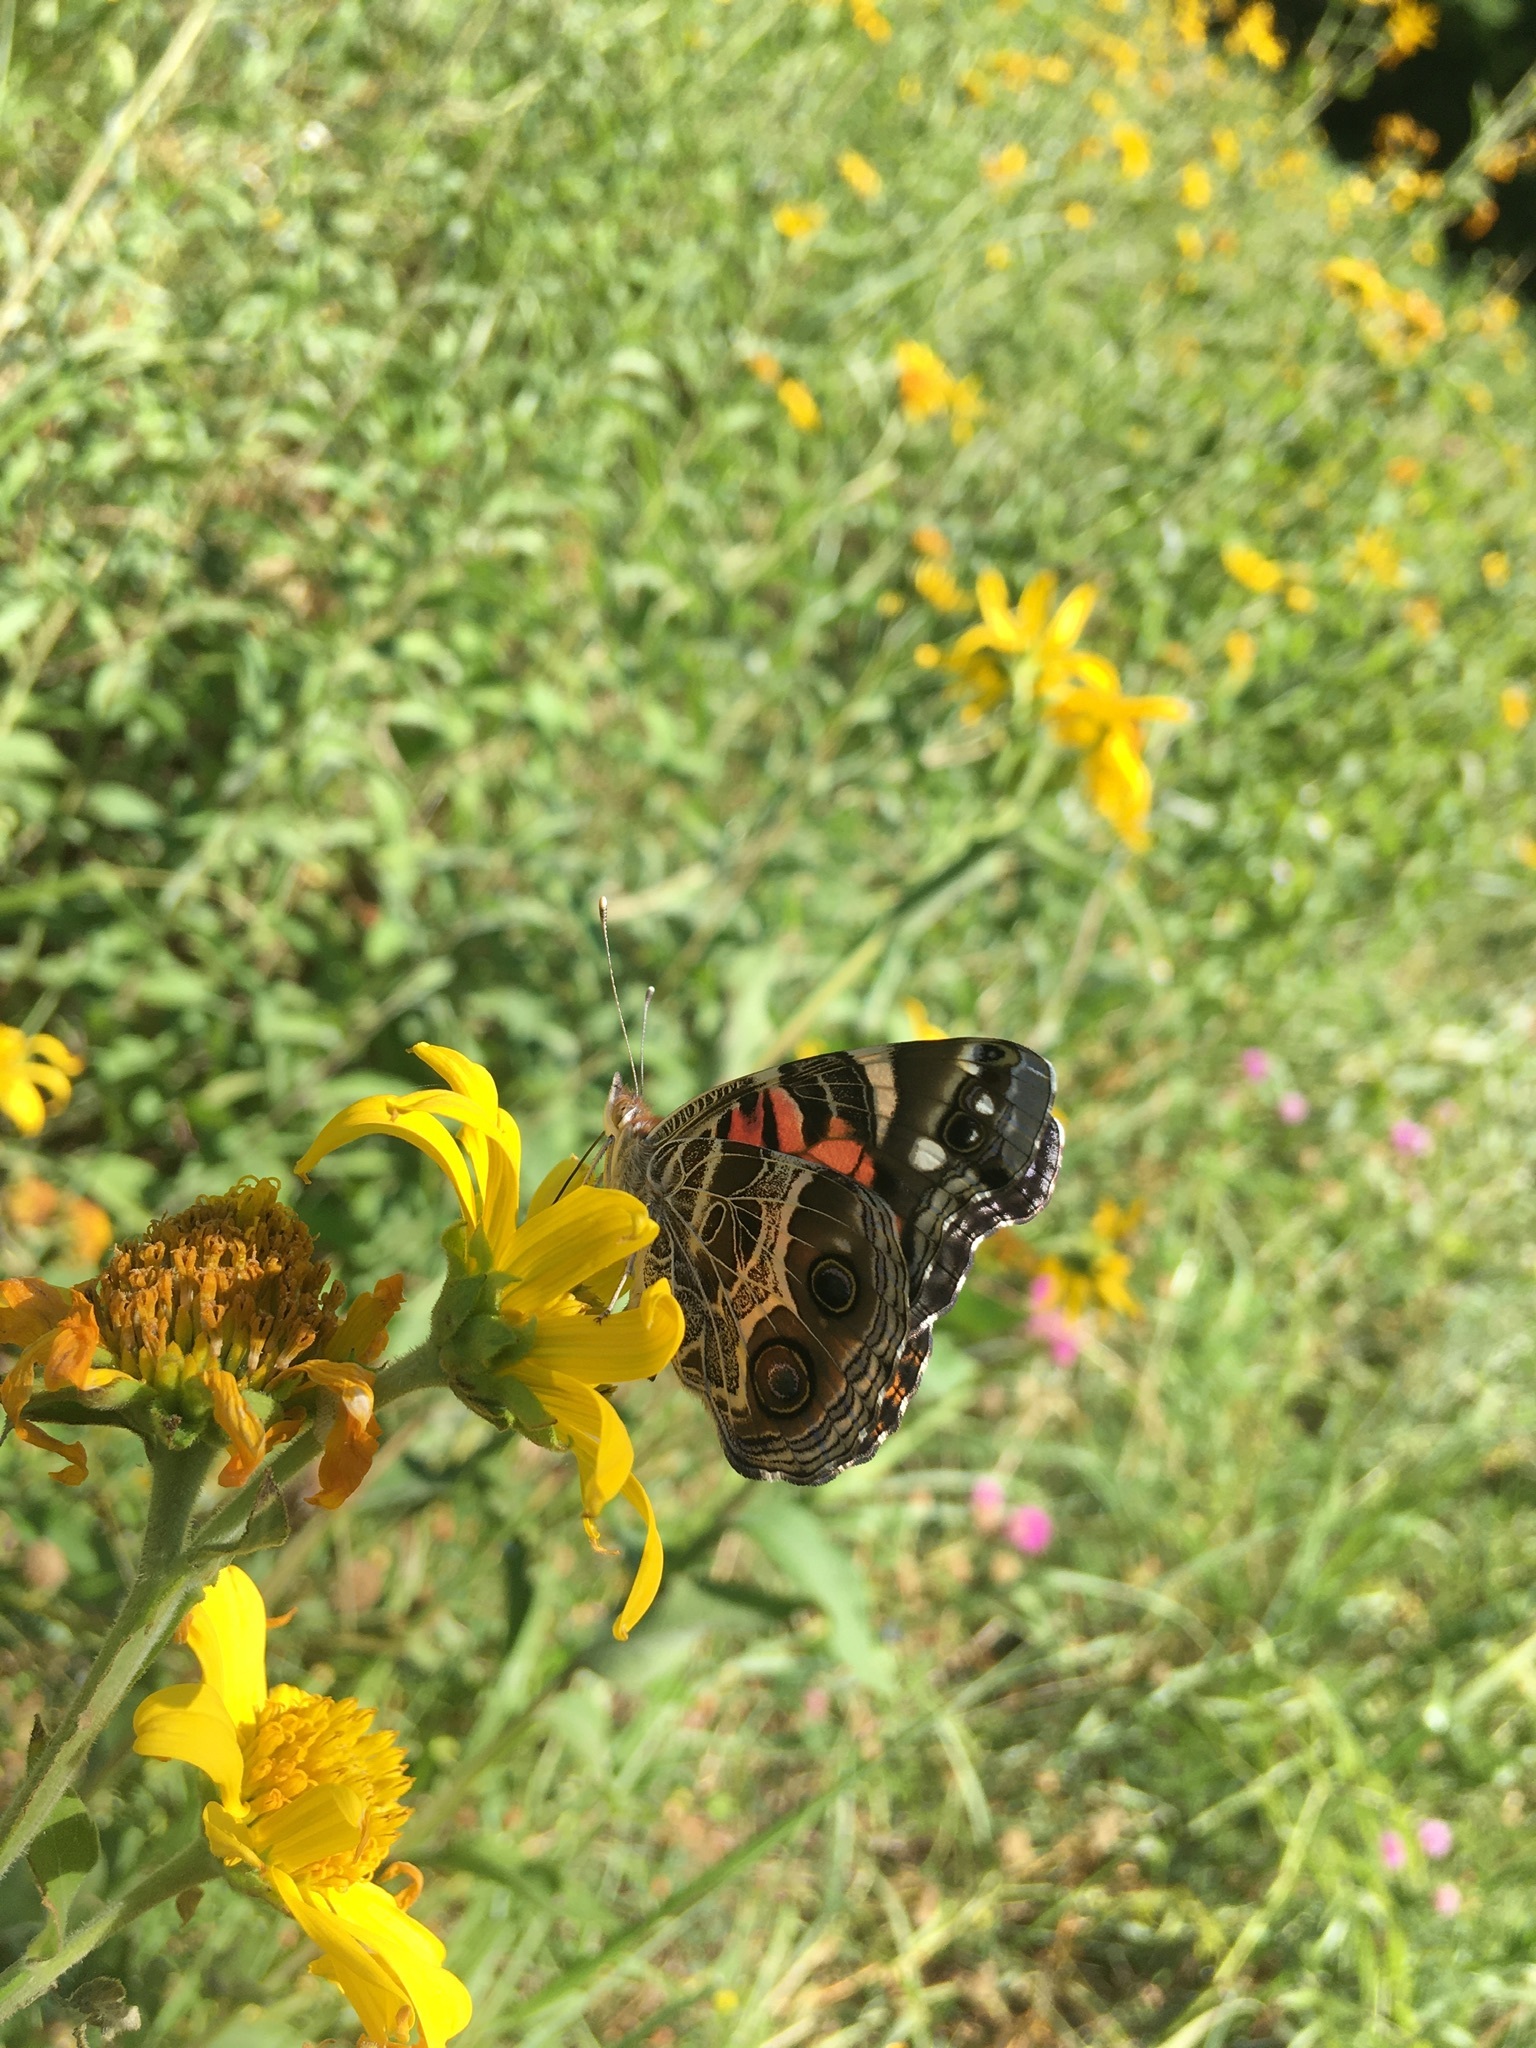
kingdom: Animalia
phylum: Arthropoda
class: Insecta
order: Lepidoptera
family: Nymphalidae
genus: Vanessa
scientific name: Vanessa virginiensis
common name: American lady
